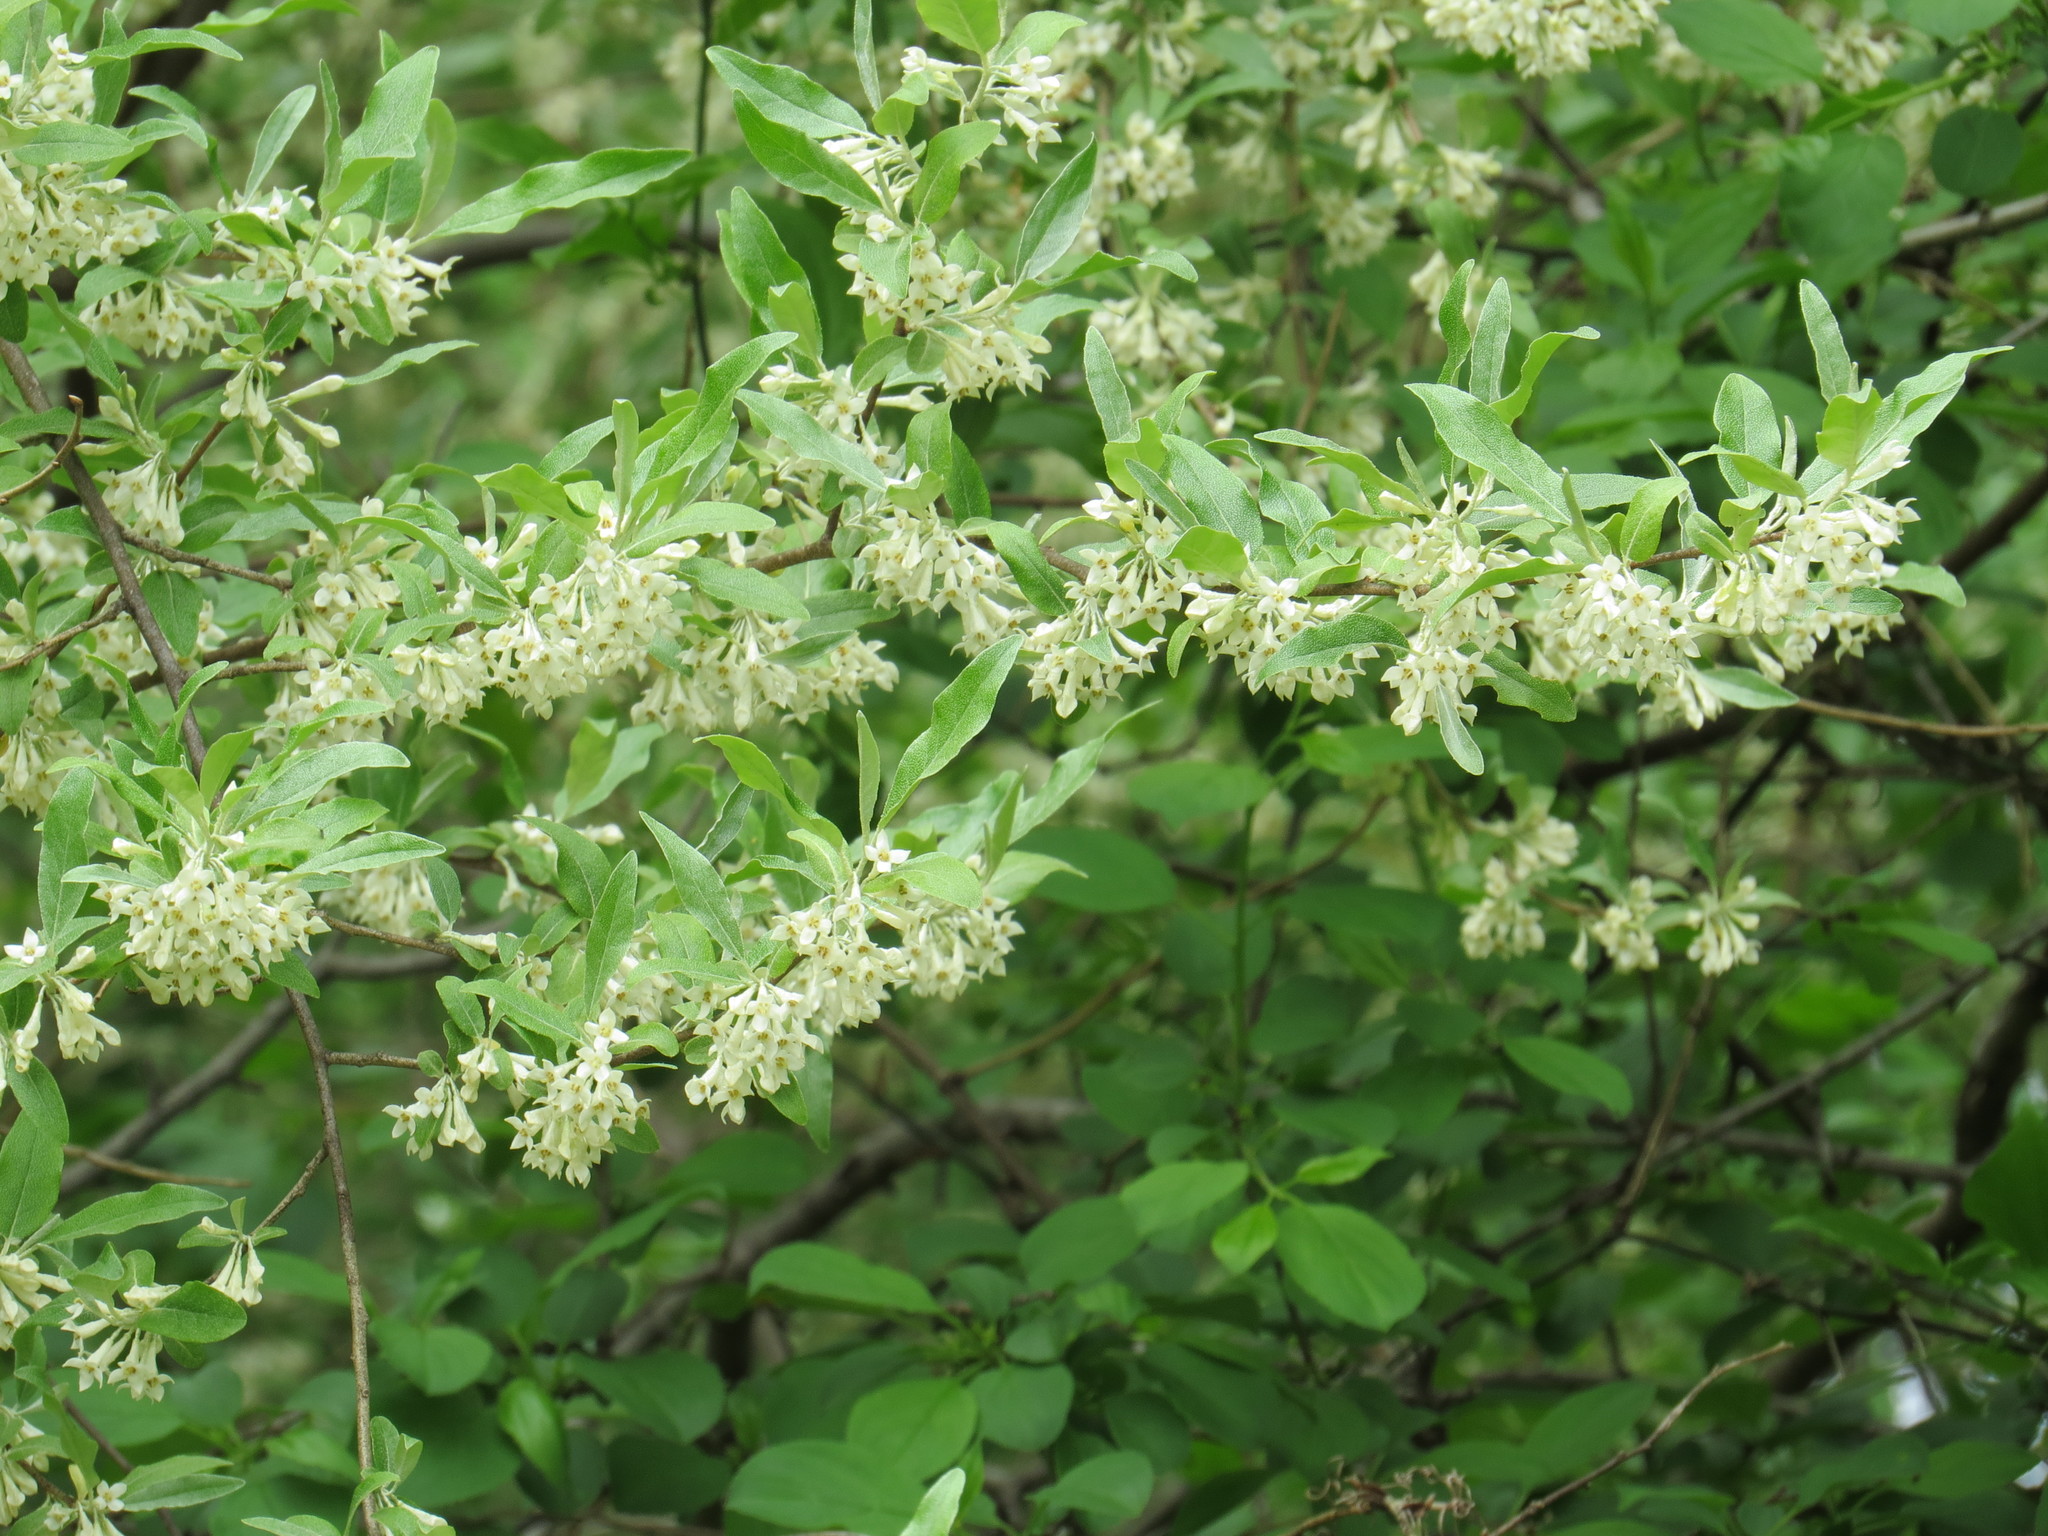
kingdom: Plantae
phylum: Tracheophyta
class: Magnoliopsida
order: Rosales
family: Elaeagnaceae
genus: Elaeagnus
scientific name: Elaeagnus umbellata
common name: Autumn olive
